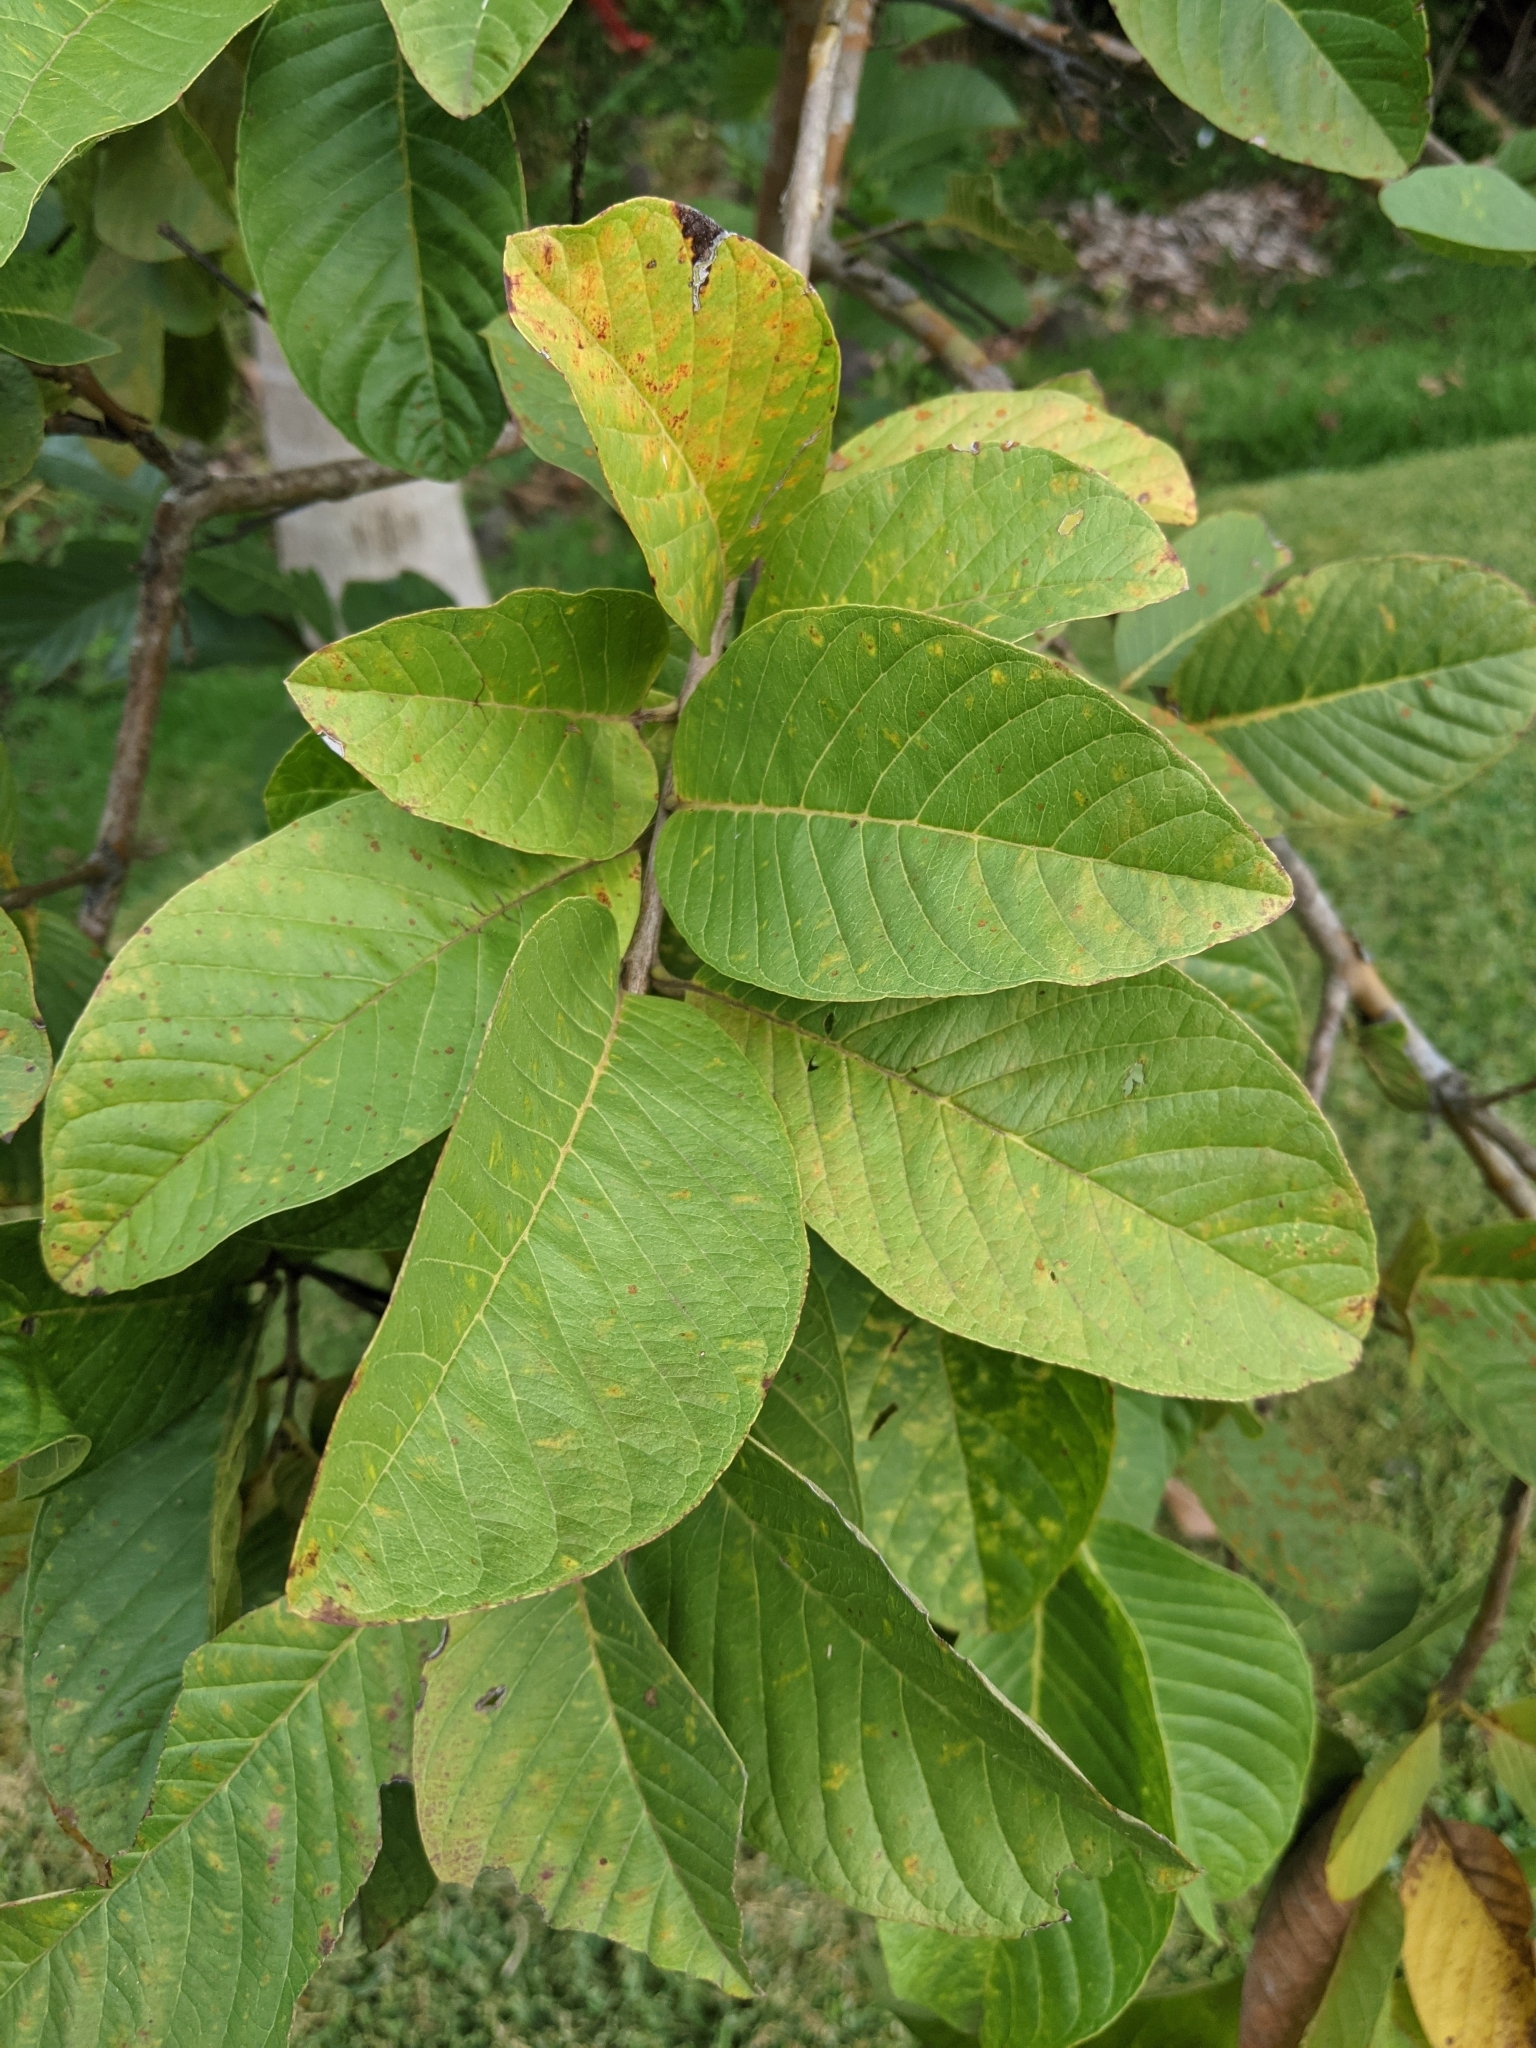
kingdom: Plantae
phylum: Tracheophyta
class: Magnoliopsida
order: Myrtales
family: Myrtaceae
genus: Psidium
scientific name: Psidium guajava
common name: Guava
